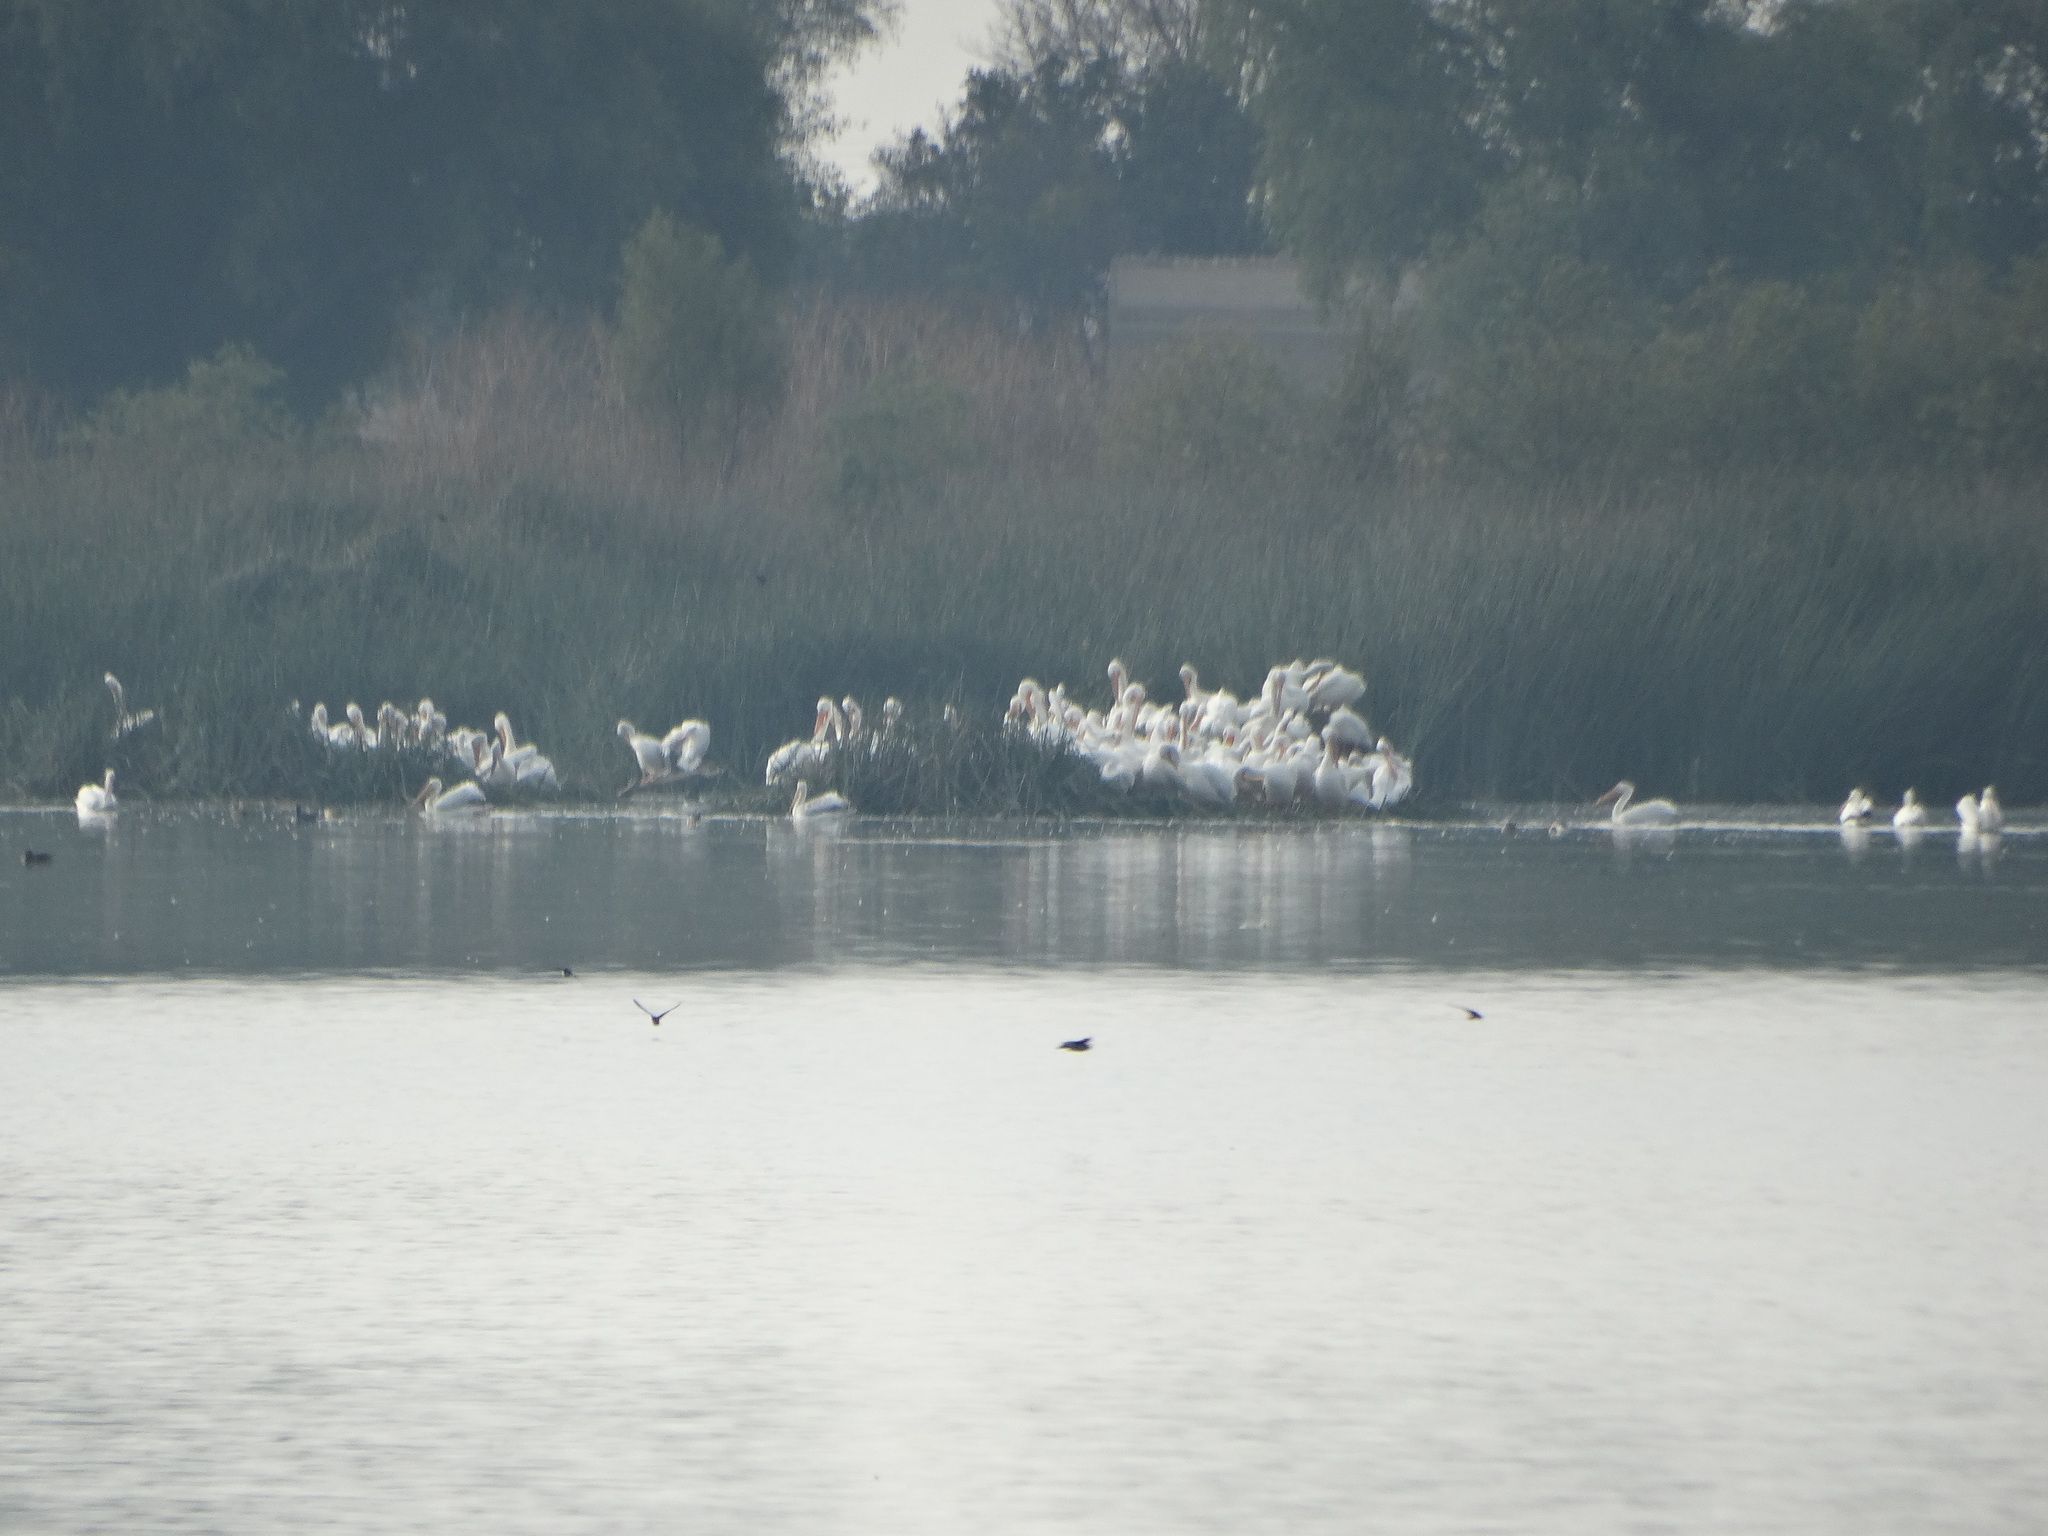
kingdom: Animalia
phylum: Chordata
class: Aves
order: Pelecaniformes
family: Pelecanidae
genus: Pelecanus
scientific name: Pelecanus erythrorhynchos
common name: American white pelican
